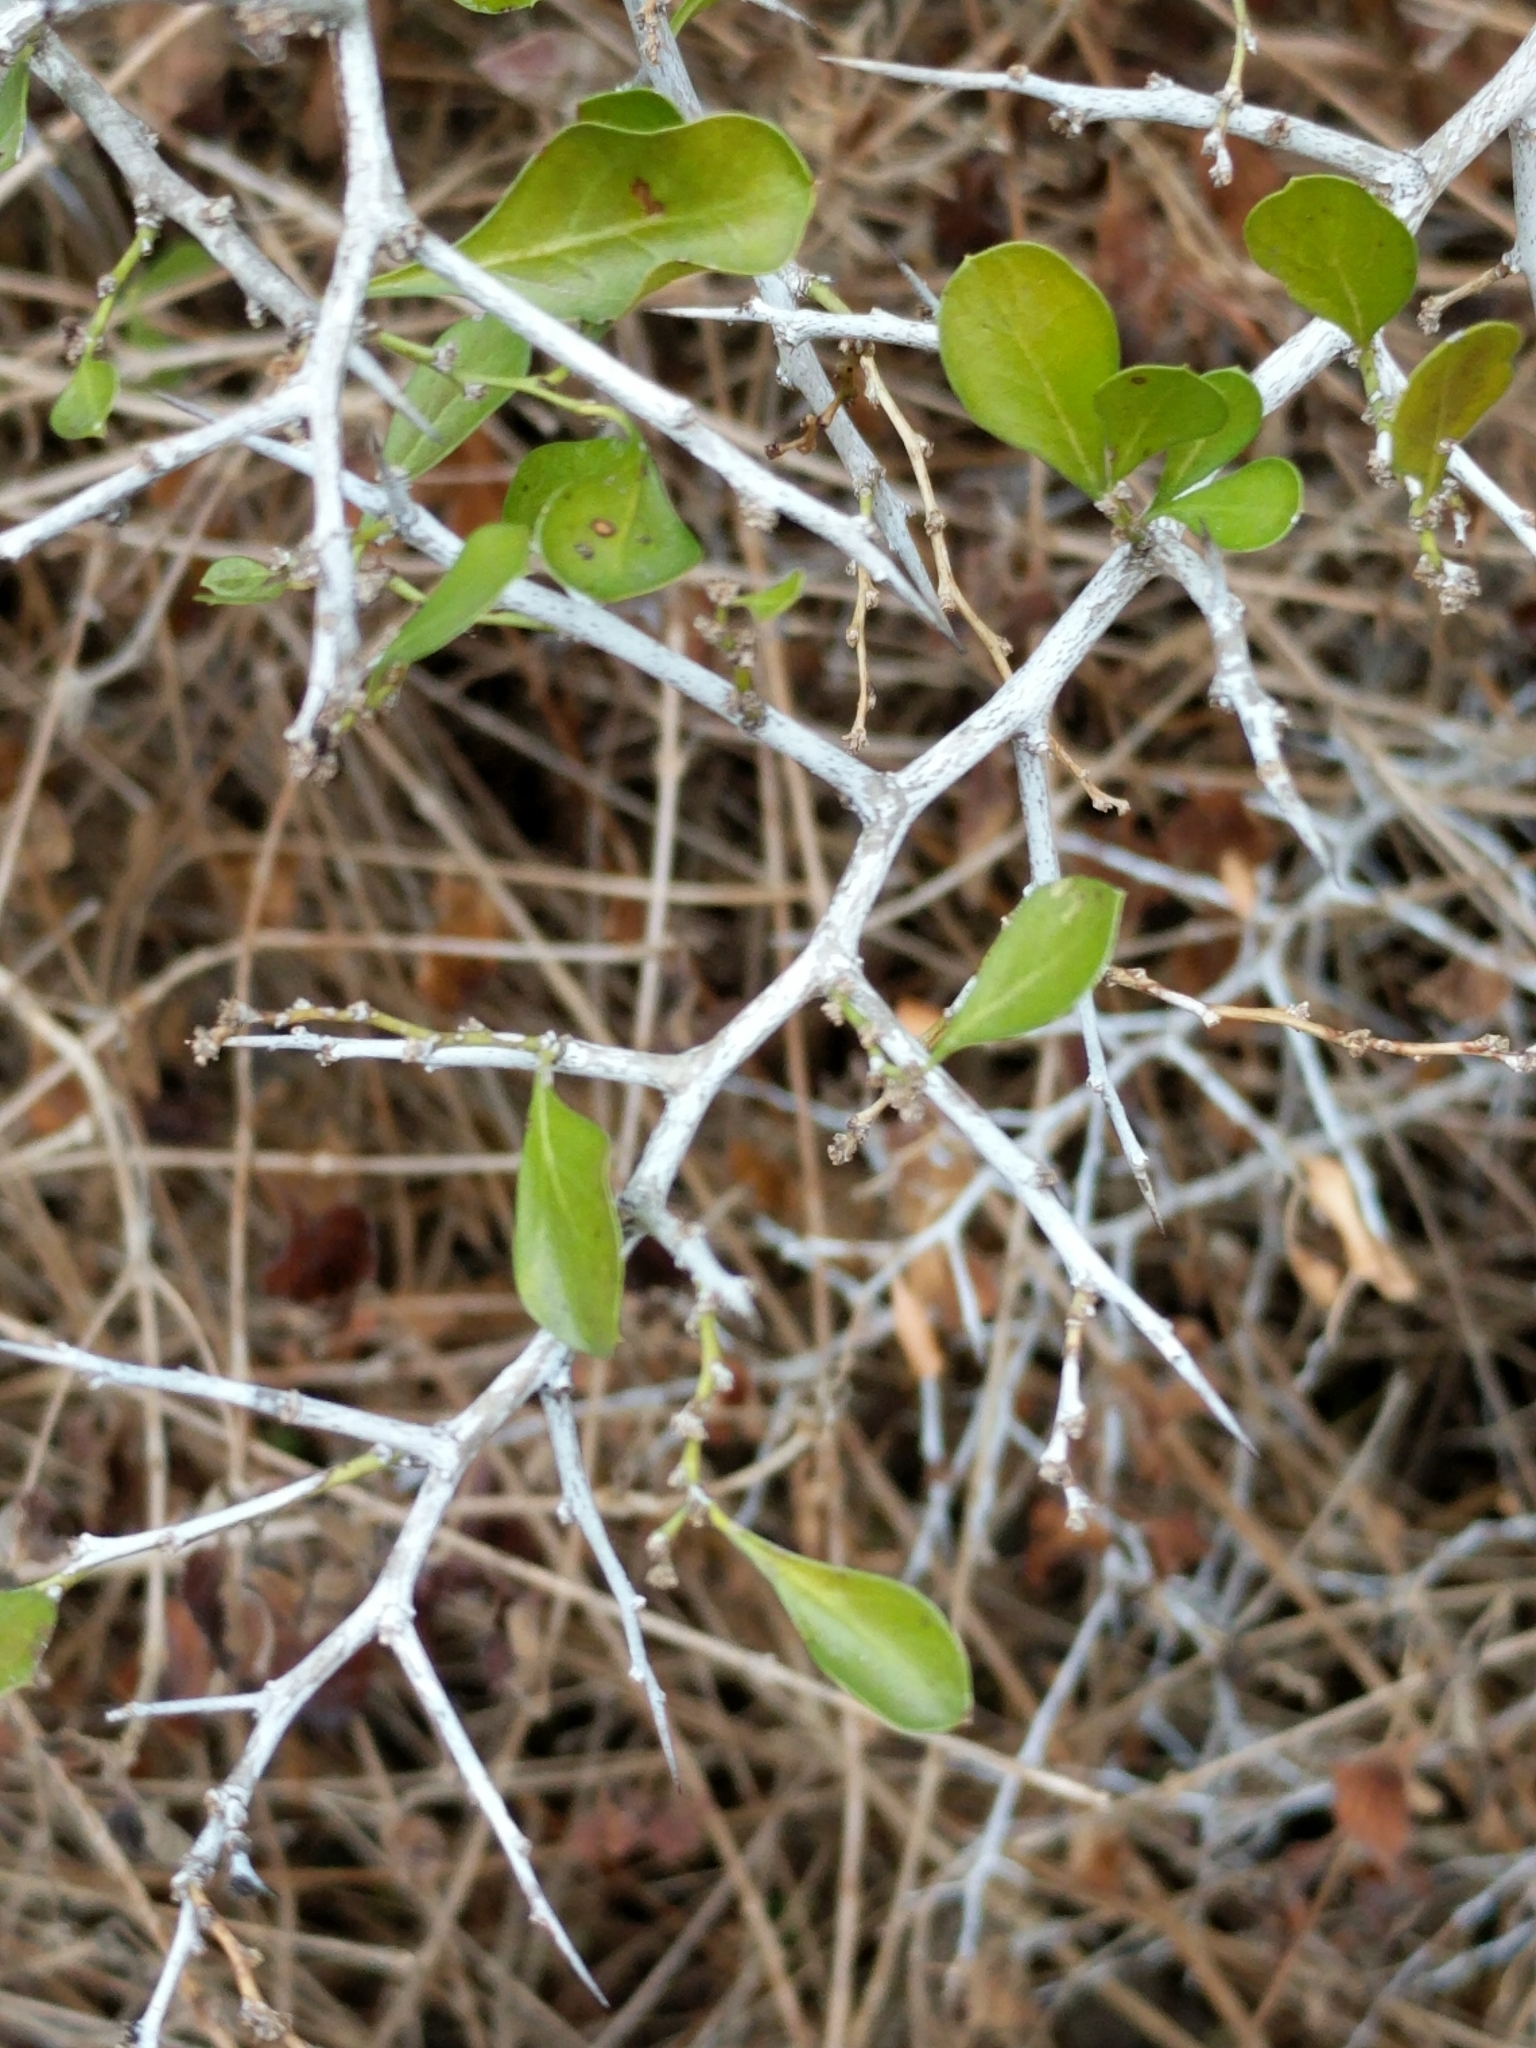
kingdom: Plantae
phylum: Tracheophyta
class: Magnoliopsida
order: Rosales
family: Rhamnaceae
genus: Condalia
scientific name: Condalia hookeri
